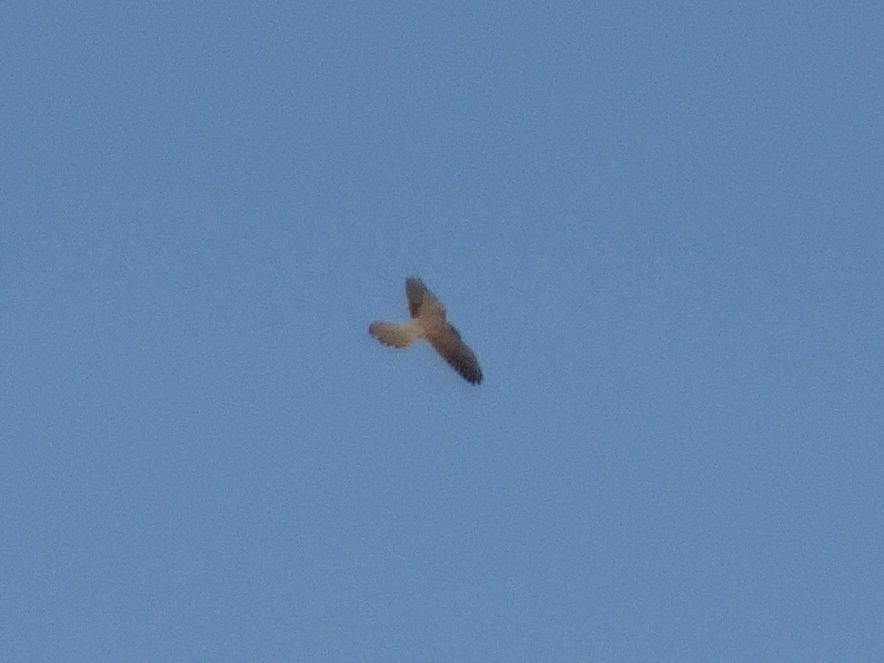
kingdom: Animalia
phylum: Chordata
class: Aves
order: Falconiformes
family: Falconidae
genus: Falco
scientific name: Falco tinnunculus
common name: Common kestrel
